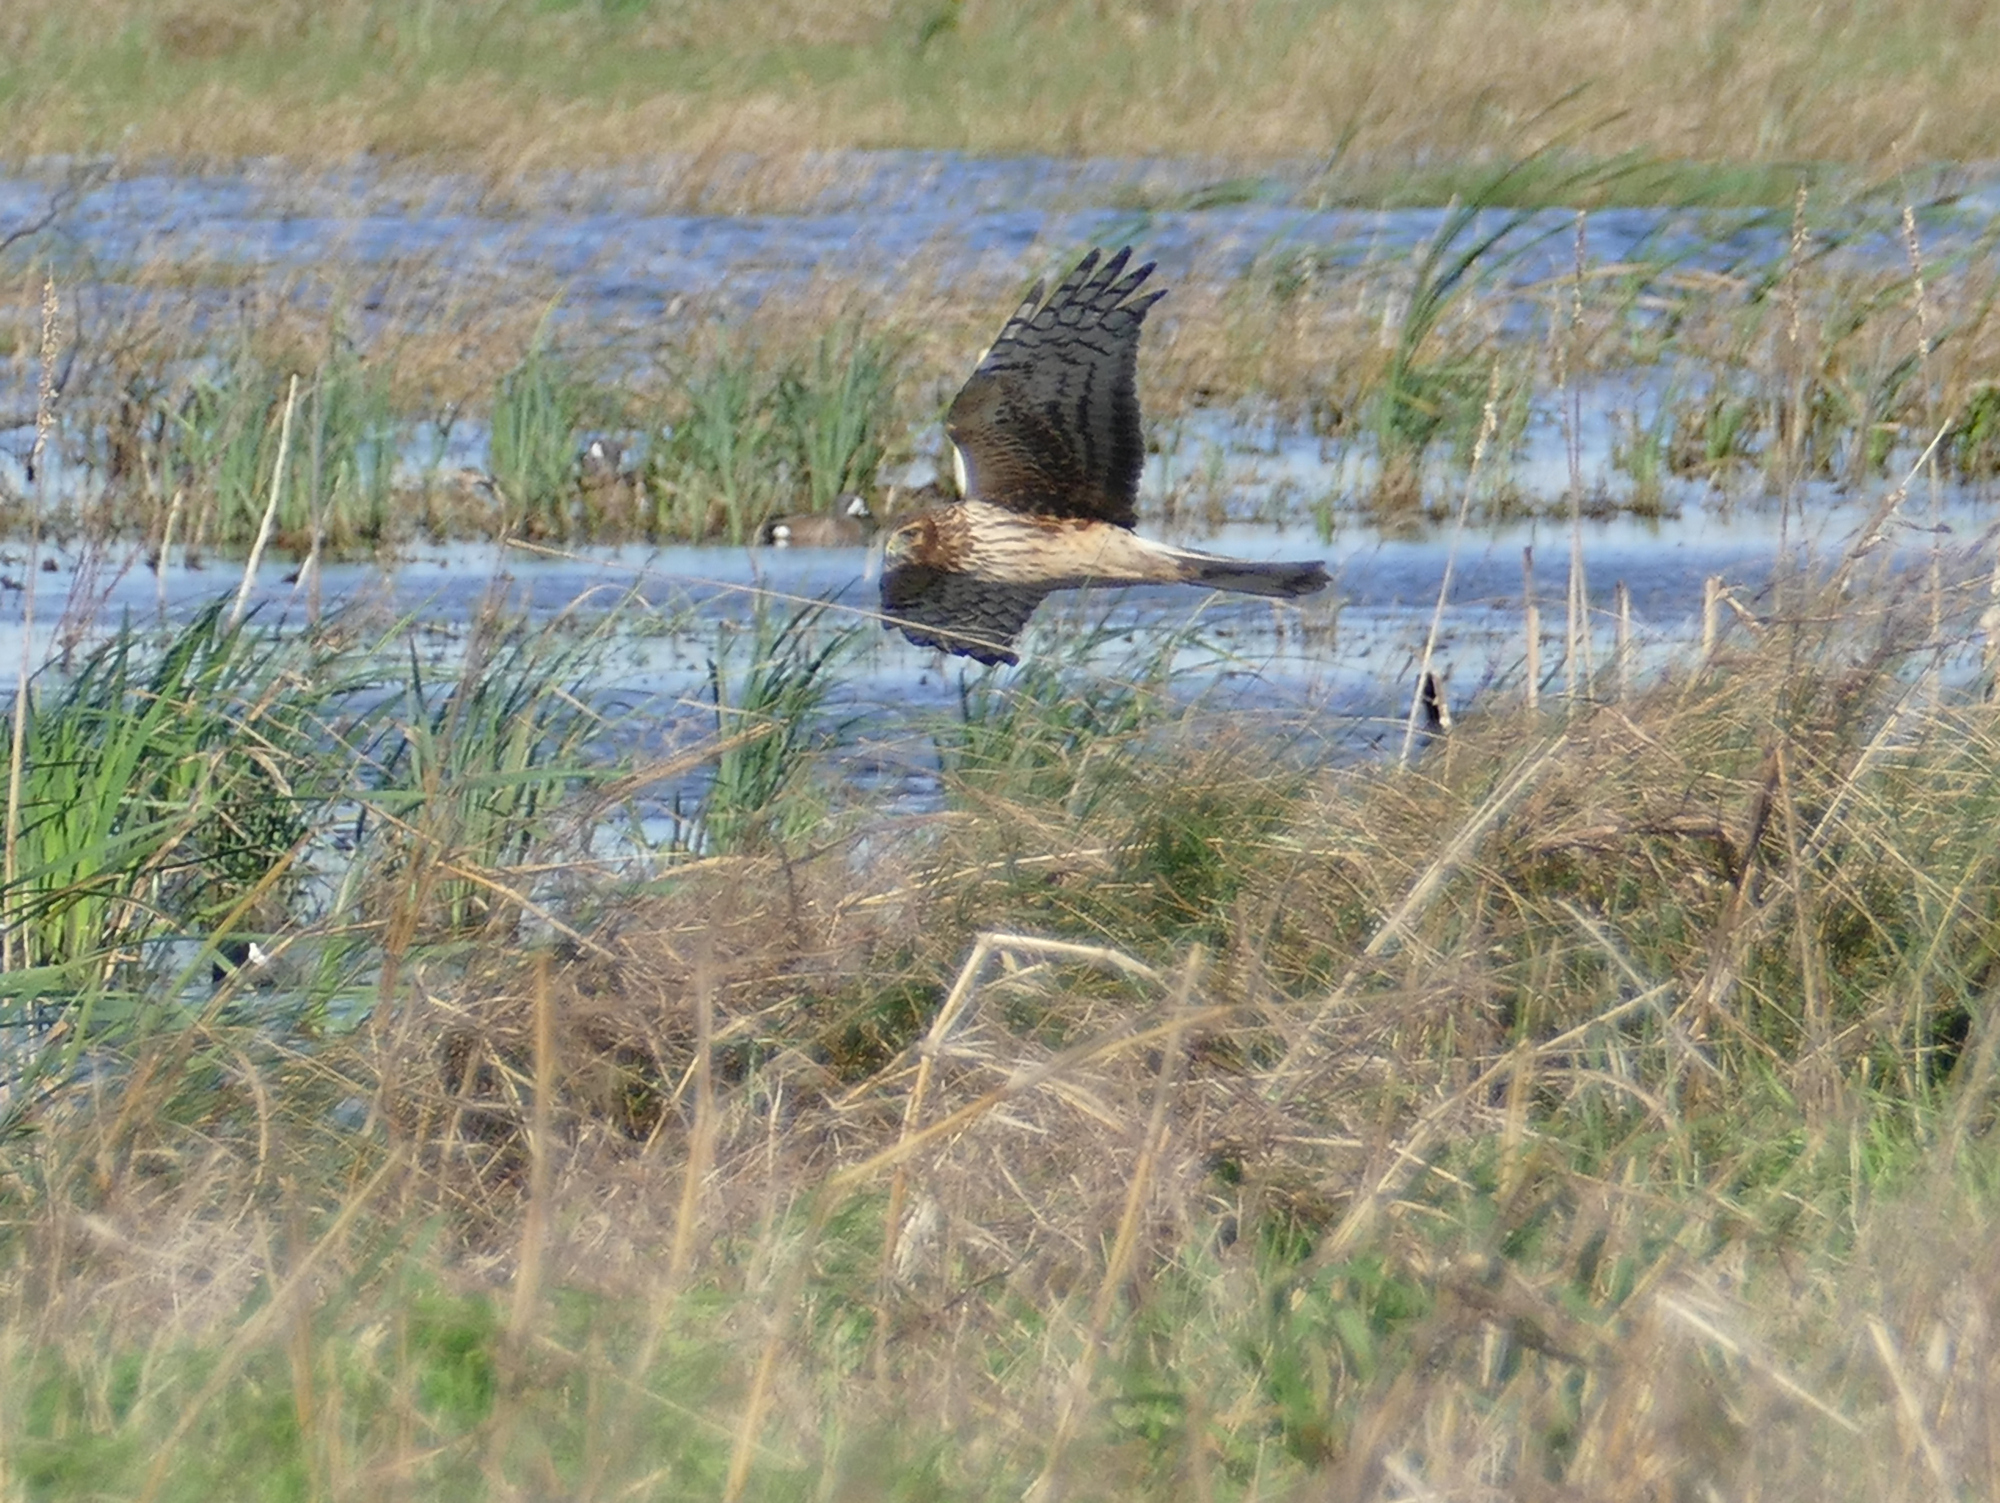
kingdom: Animalia
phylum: Chordata
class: Aves
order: Accipitriformes
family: Accipitridae
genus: Circus
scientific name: Circus cyaneus
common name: Hen harrier
